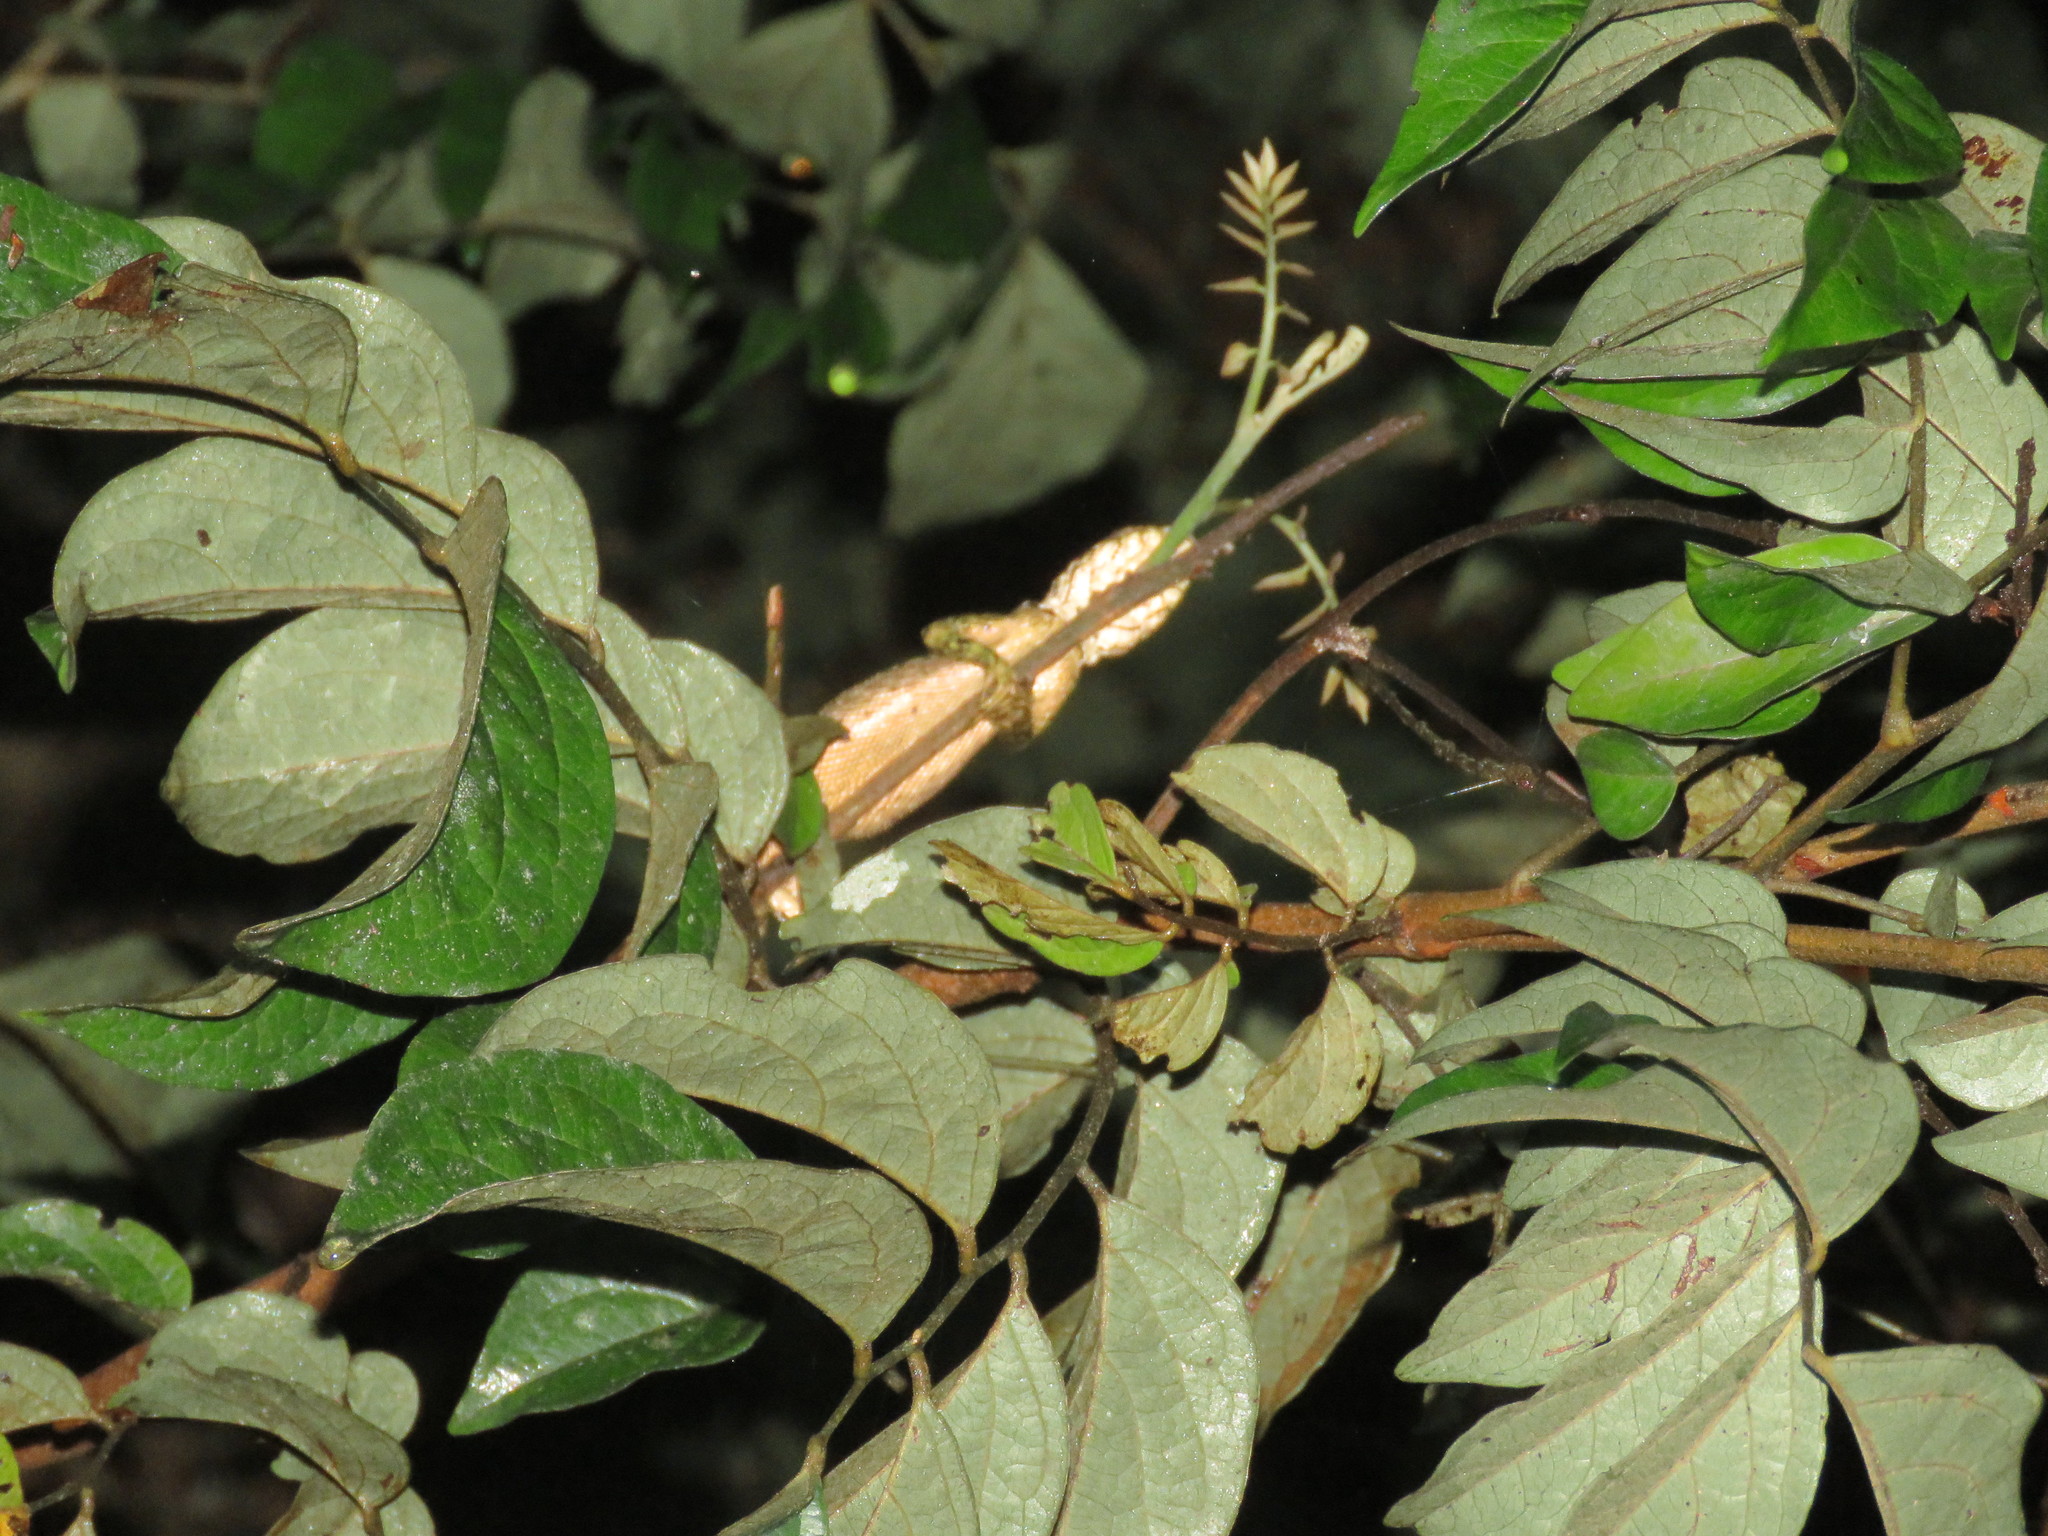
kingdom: Animalia
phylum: Chordata
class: Squamata
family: Tropiduridae
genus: Plica
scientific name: Plica umbra
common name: Harlequin racerunner
